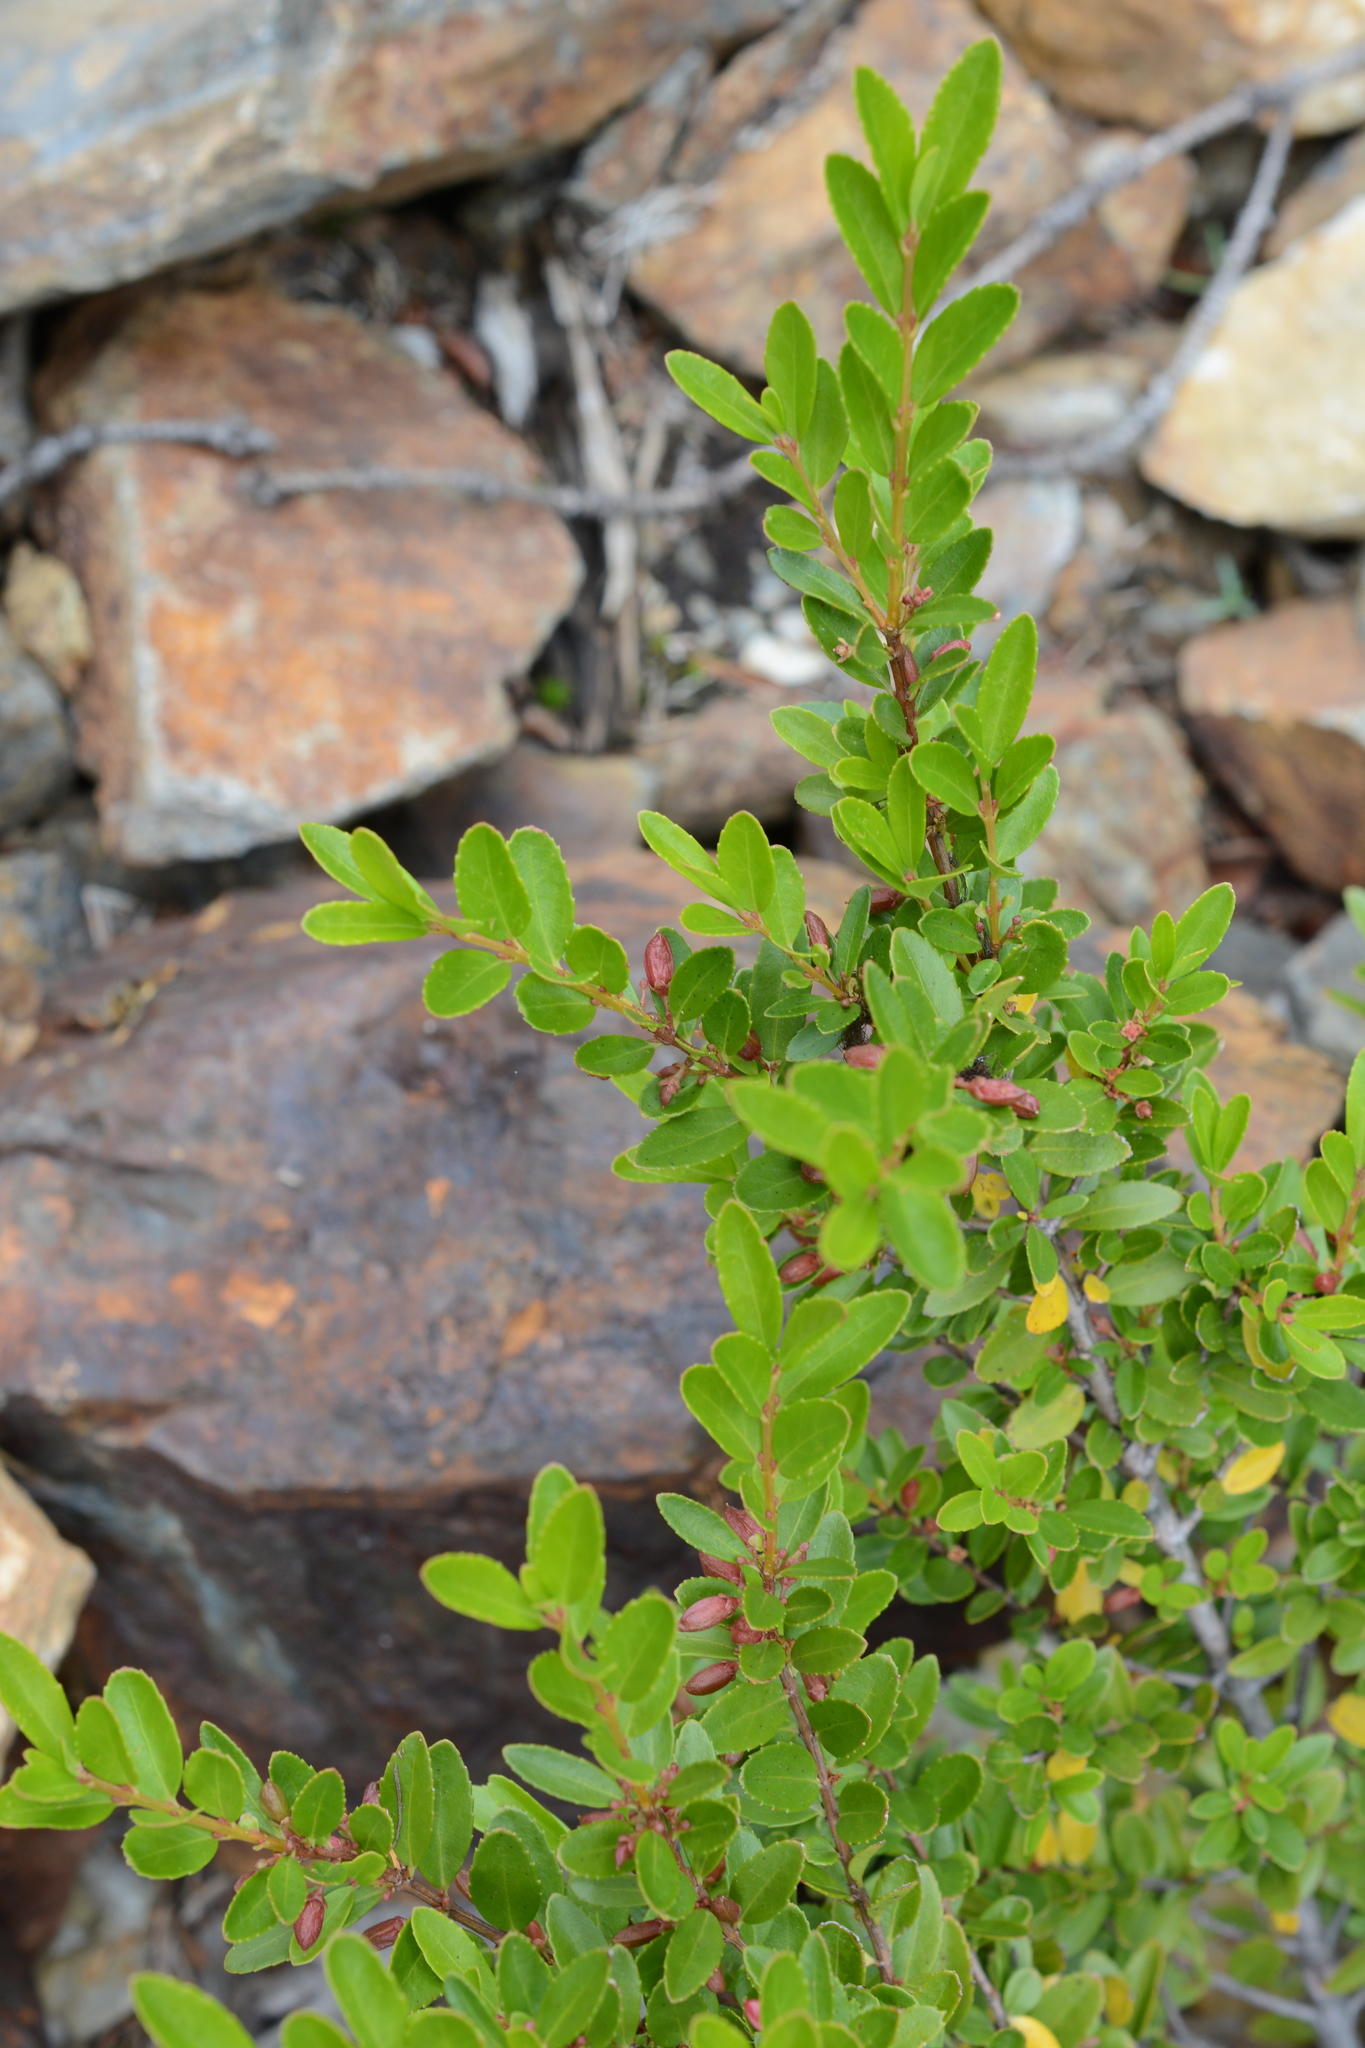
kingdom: Plantae
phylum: Tracheophyta
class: Magnoliopsida
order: Celastrales
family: Celastraceae
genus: Paxistima
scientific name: Paxistima myrsinites
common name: Mountain-lover
